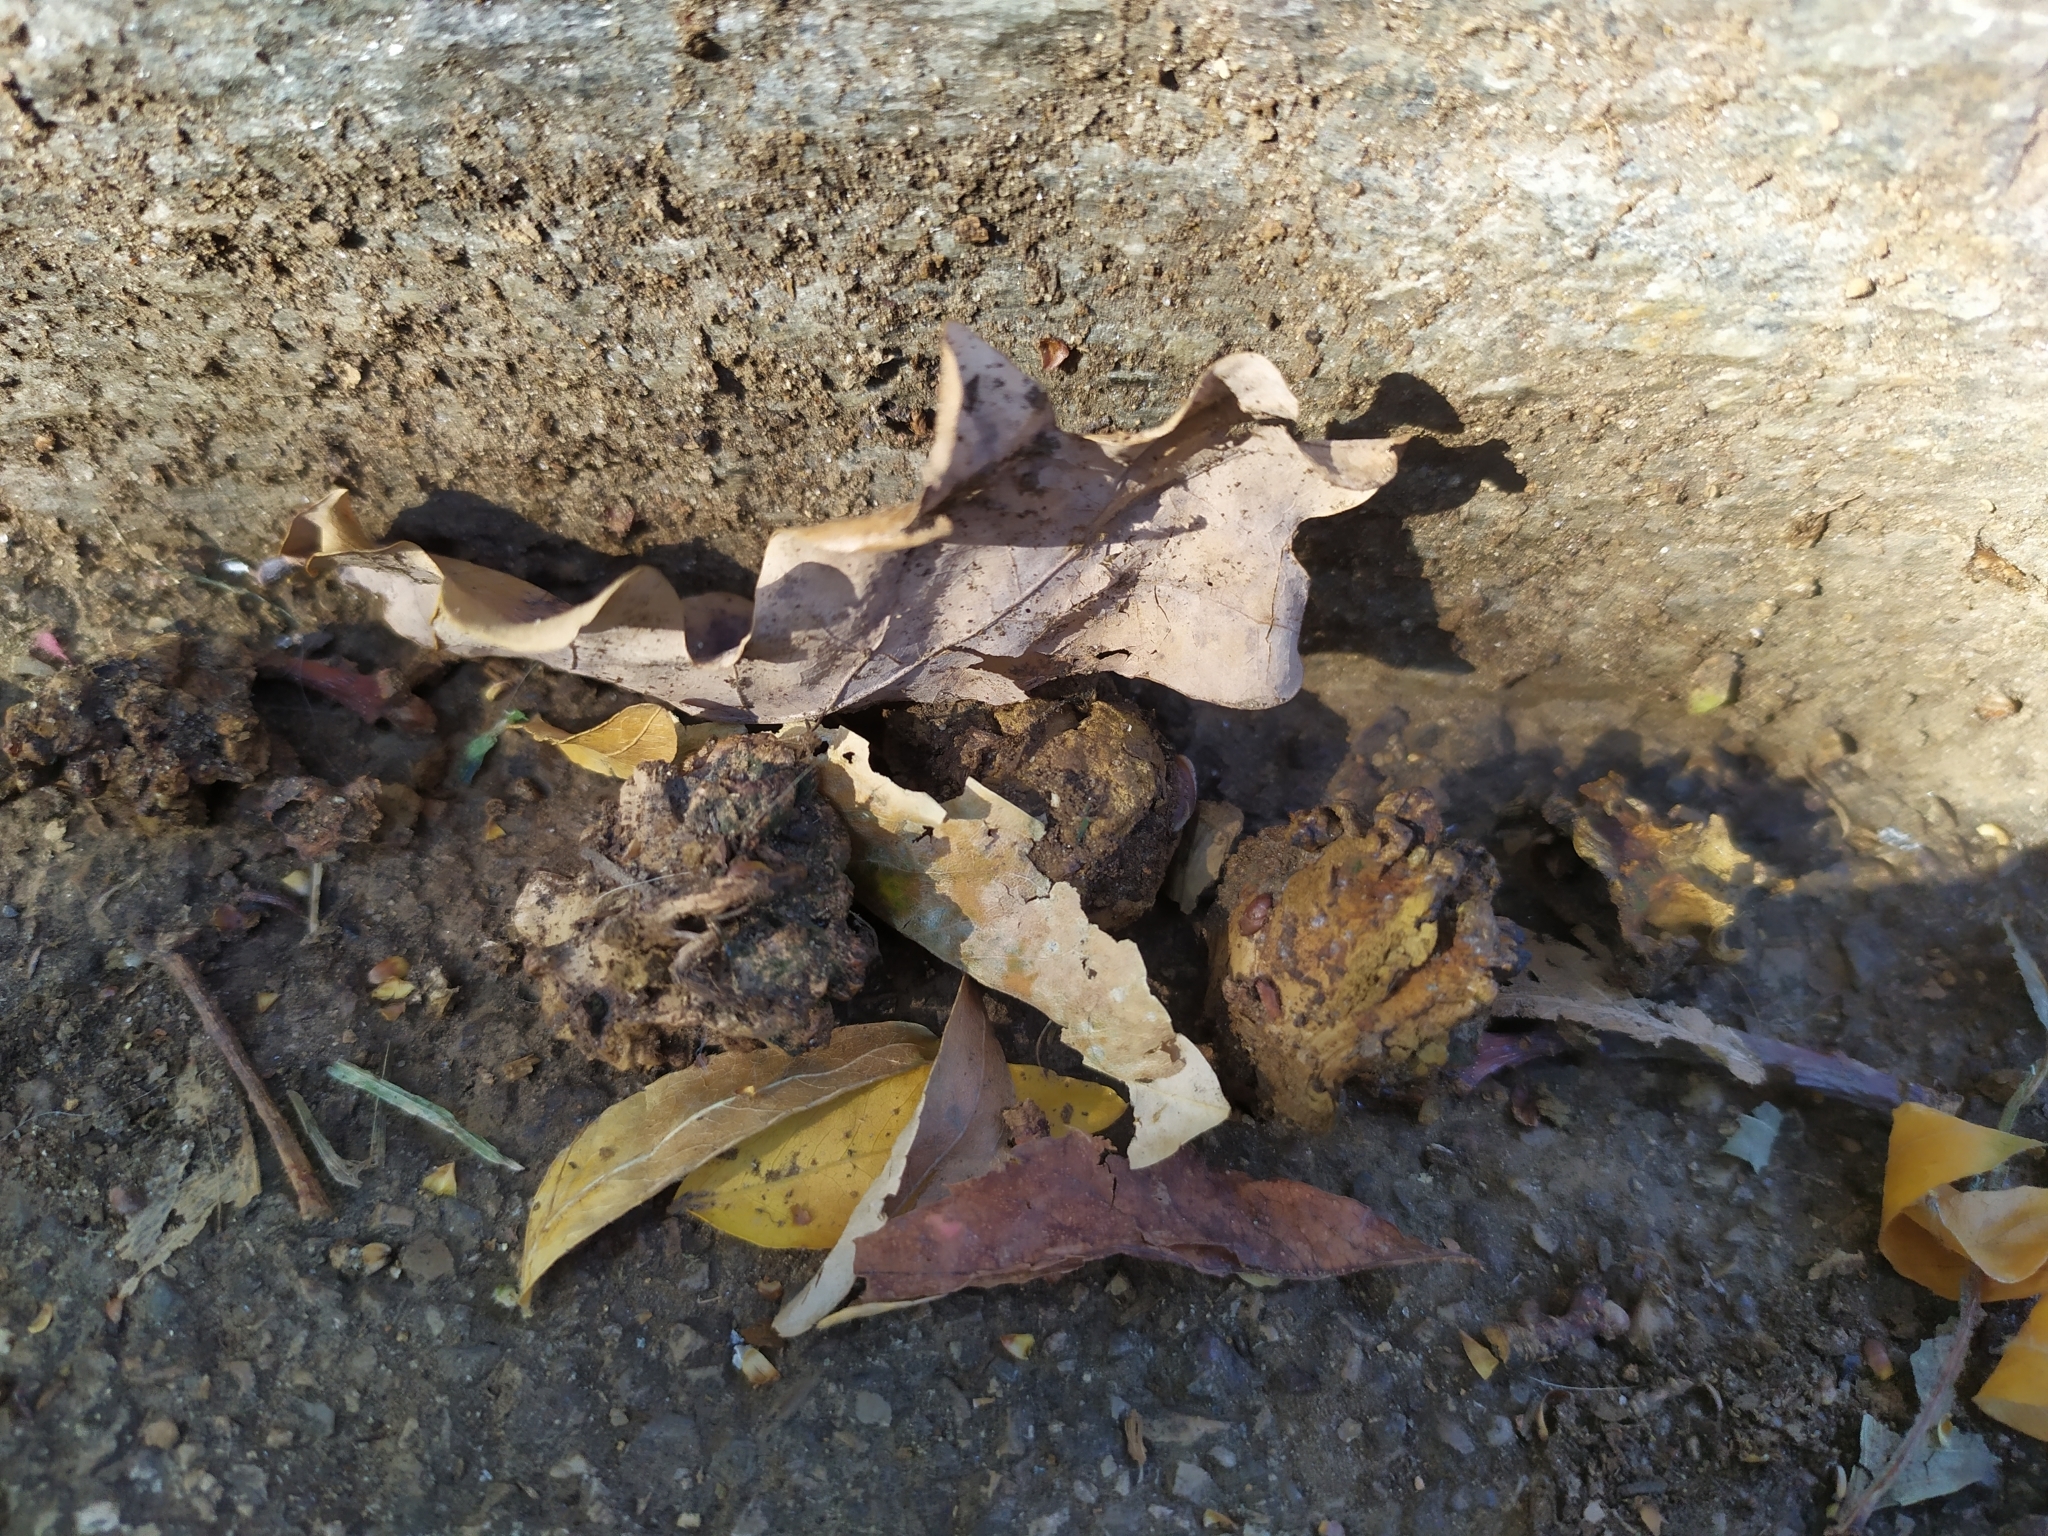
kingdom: Animalia
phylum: Arthropoda
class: Insecta
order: Hymenoptera
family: Cynipidae
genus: Andricus
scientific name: Andricus quercuscalicis
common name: Knopper gall
